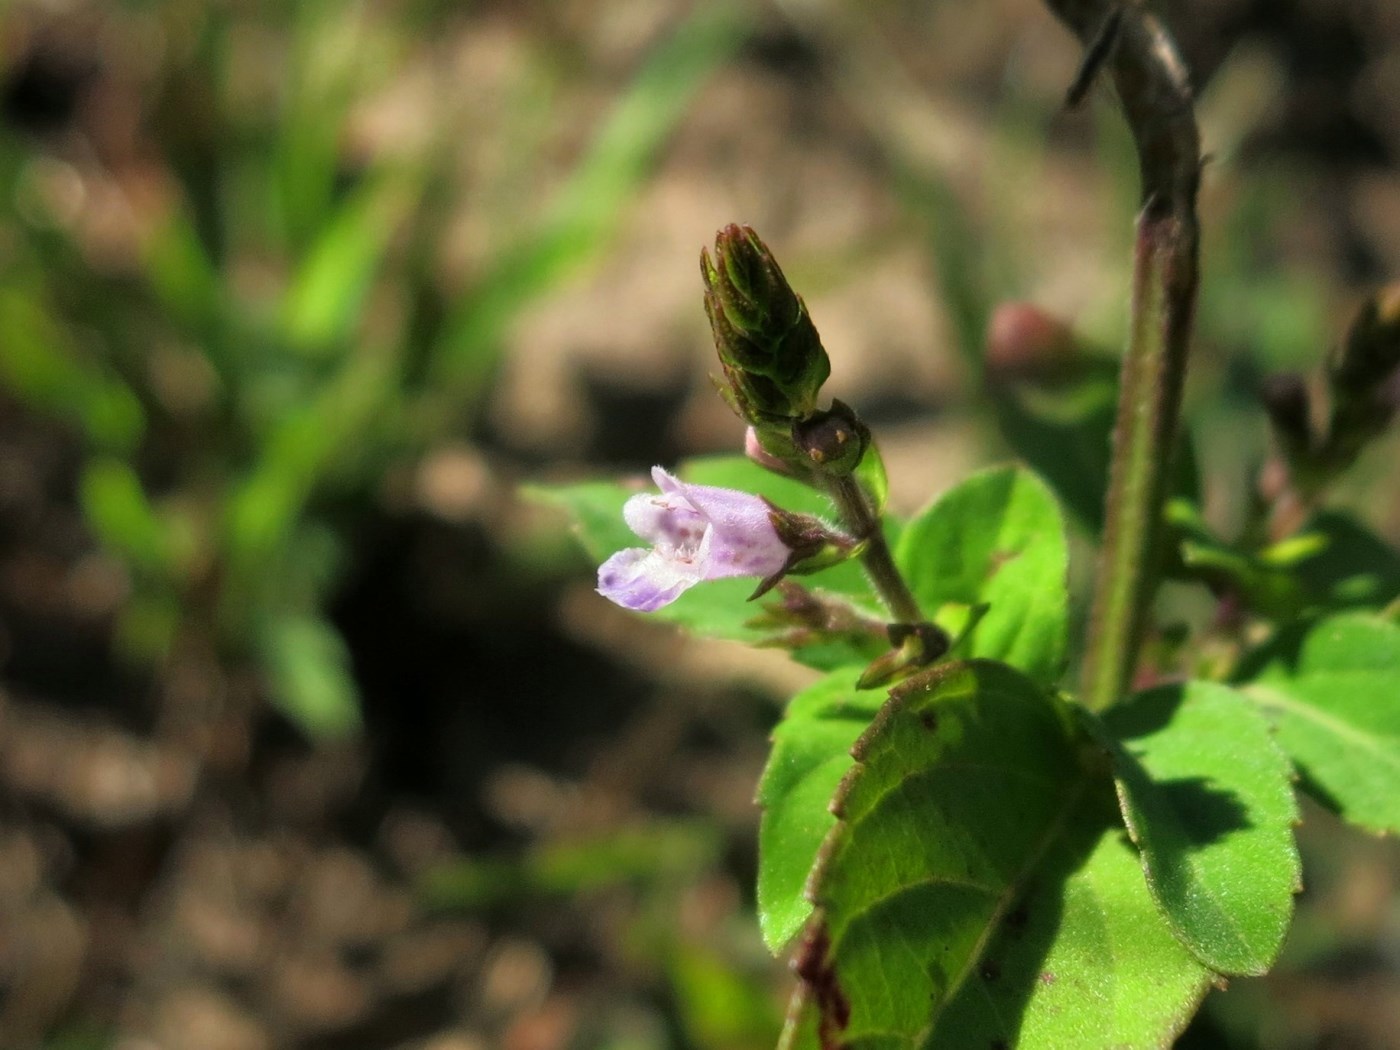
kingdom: Plantae
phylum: Tracheophyta
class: Magnoliopsida
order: Lamiales
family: Lamiaceae
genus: Mosla
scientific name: Mosla dianthera
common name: Miniature beefsteakplant
